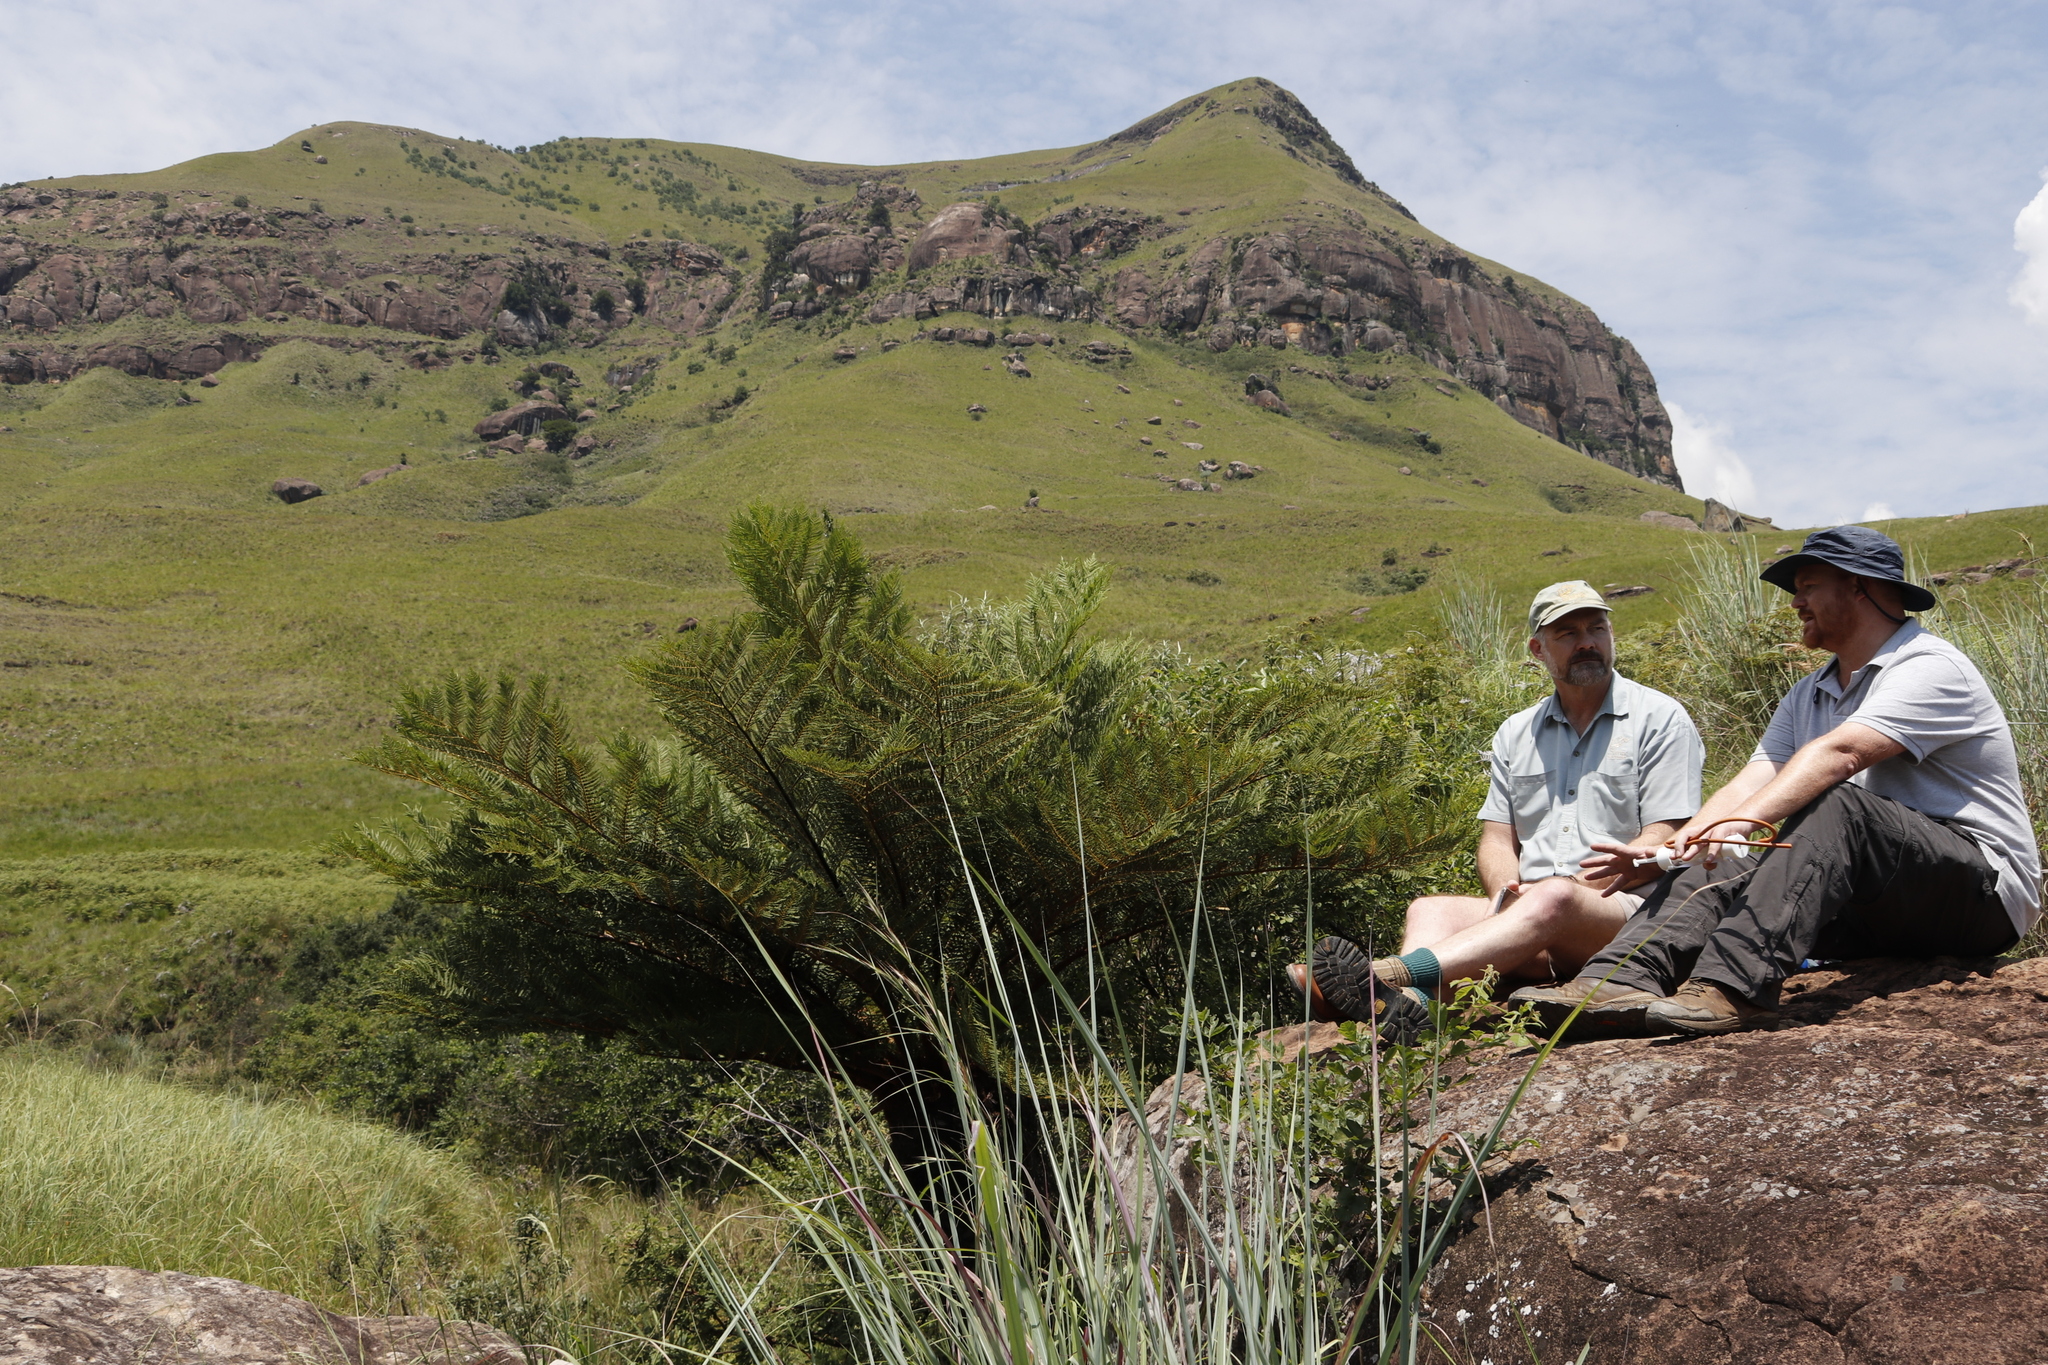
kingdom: Plantae
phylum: Tracheophyta
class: Polypodiopsida
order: Cyatheales
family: Cyatheaceae
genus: Alsophila
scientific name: Alsophila dregei
